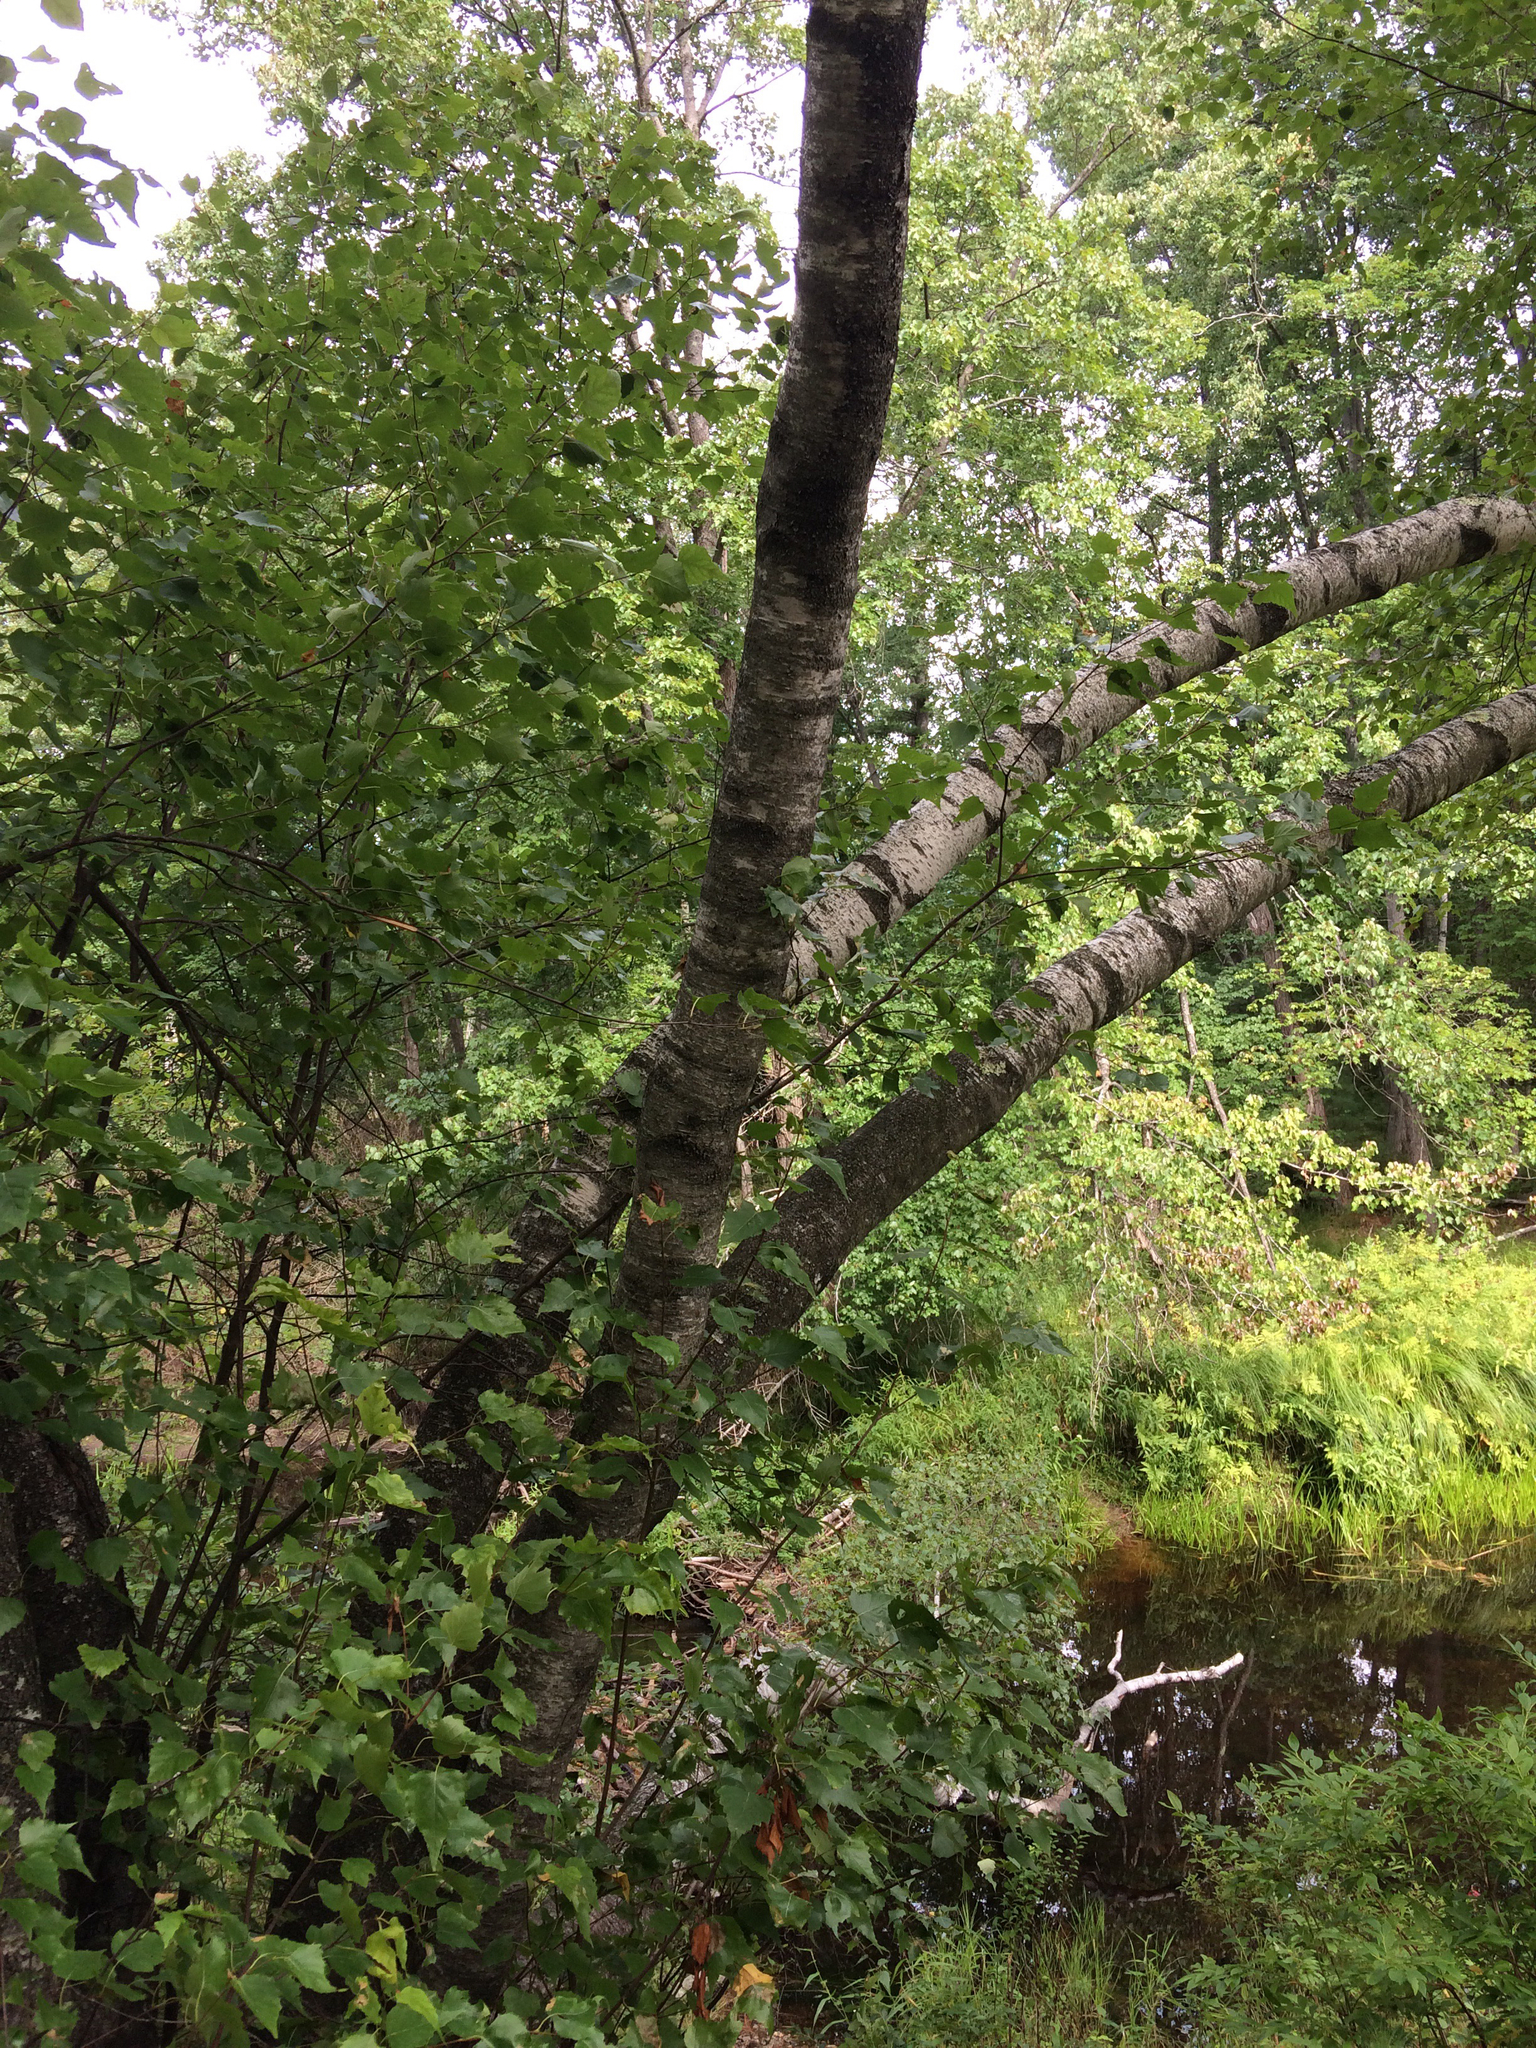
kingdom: Plantae
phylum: Tracheophyta
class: Magnoliopsida
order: Fagales
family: Betulaceae
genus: Betula
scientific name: Betula populifolia
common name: Fire birch
